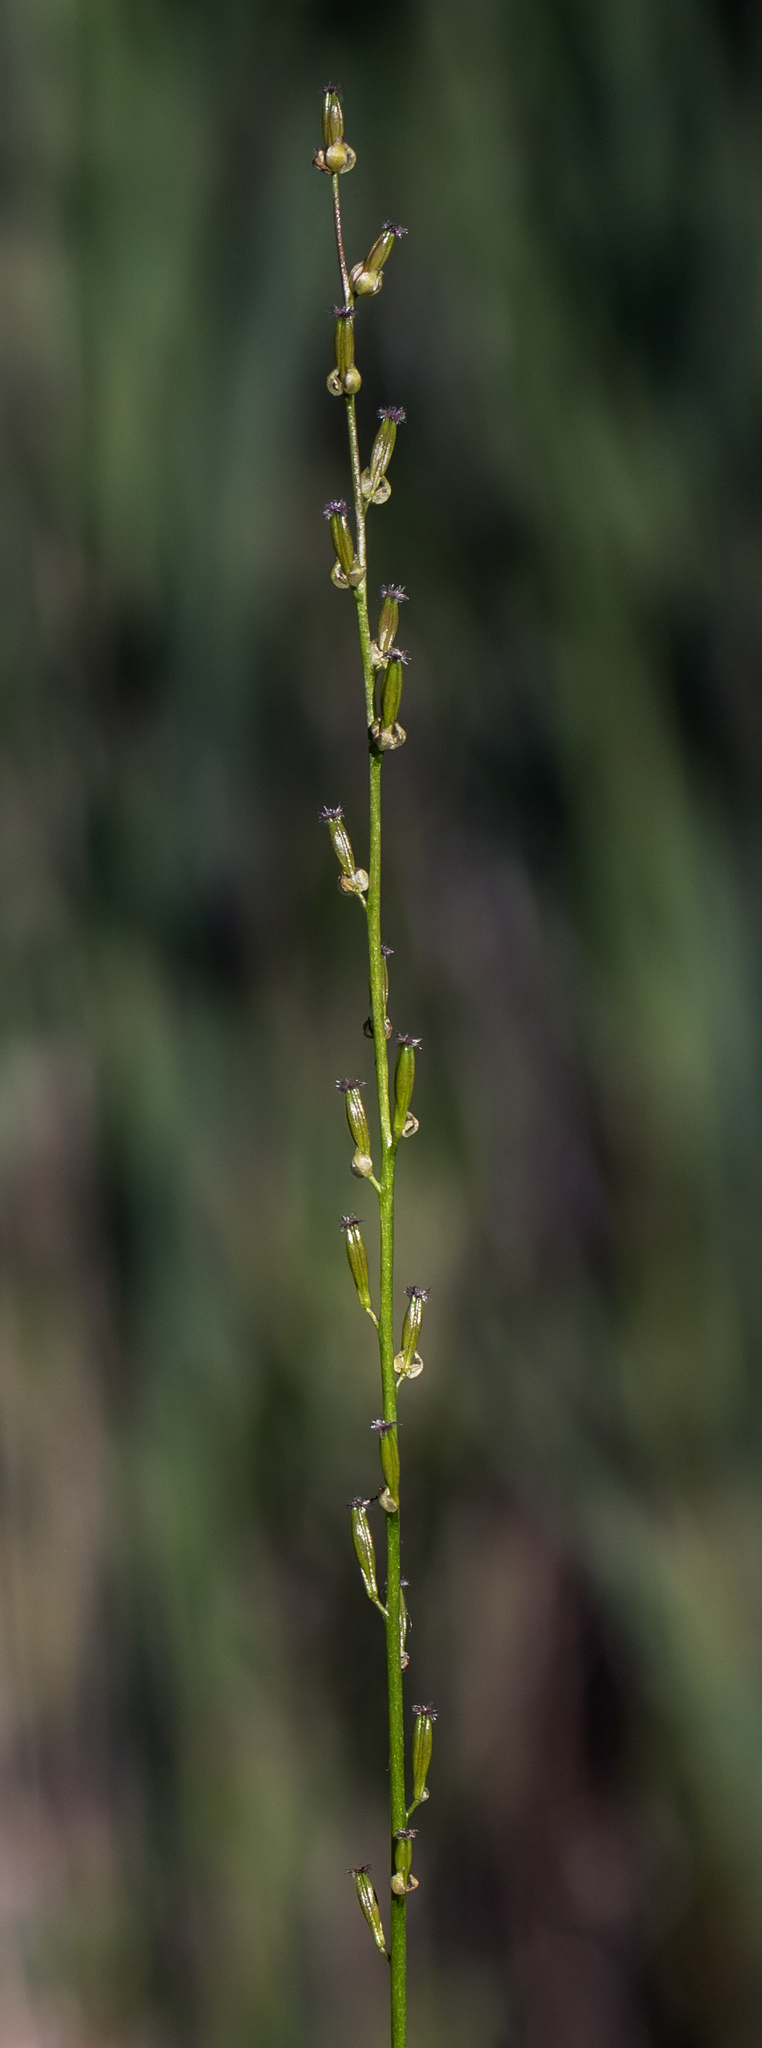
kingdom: Plantae
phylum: Tracheophyta
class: Liliopsida
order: Alismatales
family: Juncaginaceae
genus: Triglochin
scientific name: Triglochin palustris
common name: Marsh arrowgrass
